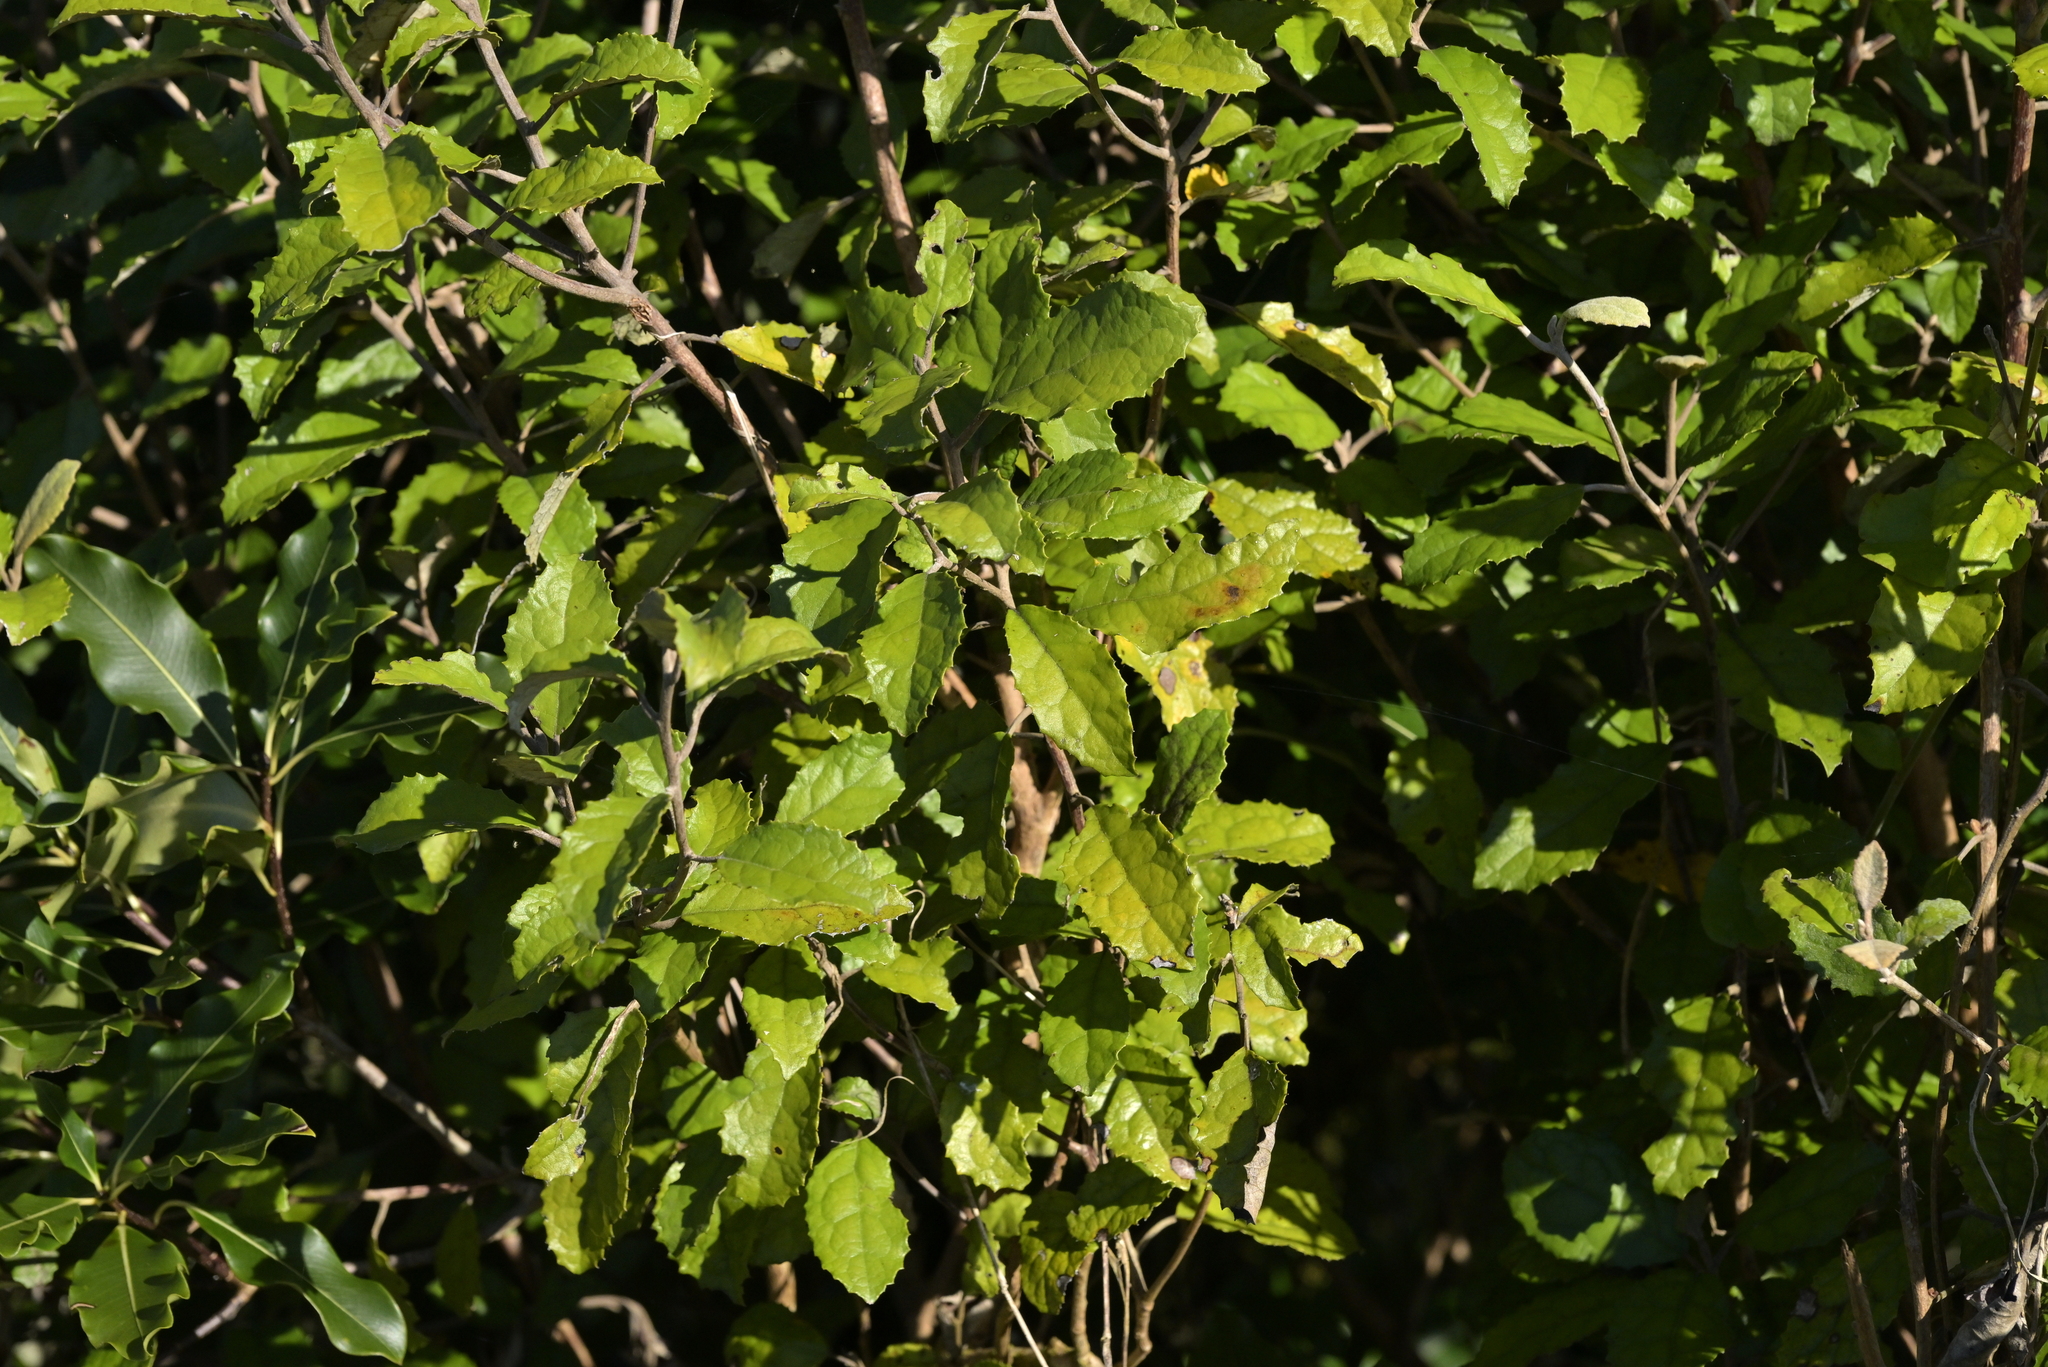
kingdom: Plantae
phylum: Tracheophyta
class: Magnoliopsida
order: Asterales
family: Asteraceae
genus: Olearia
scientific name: Olearia rani
